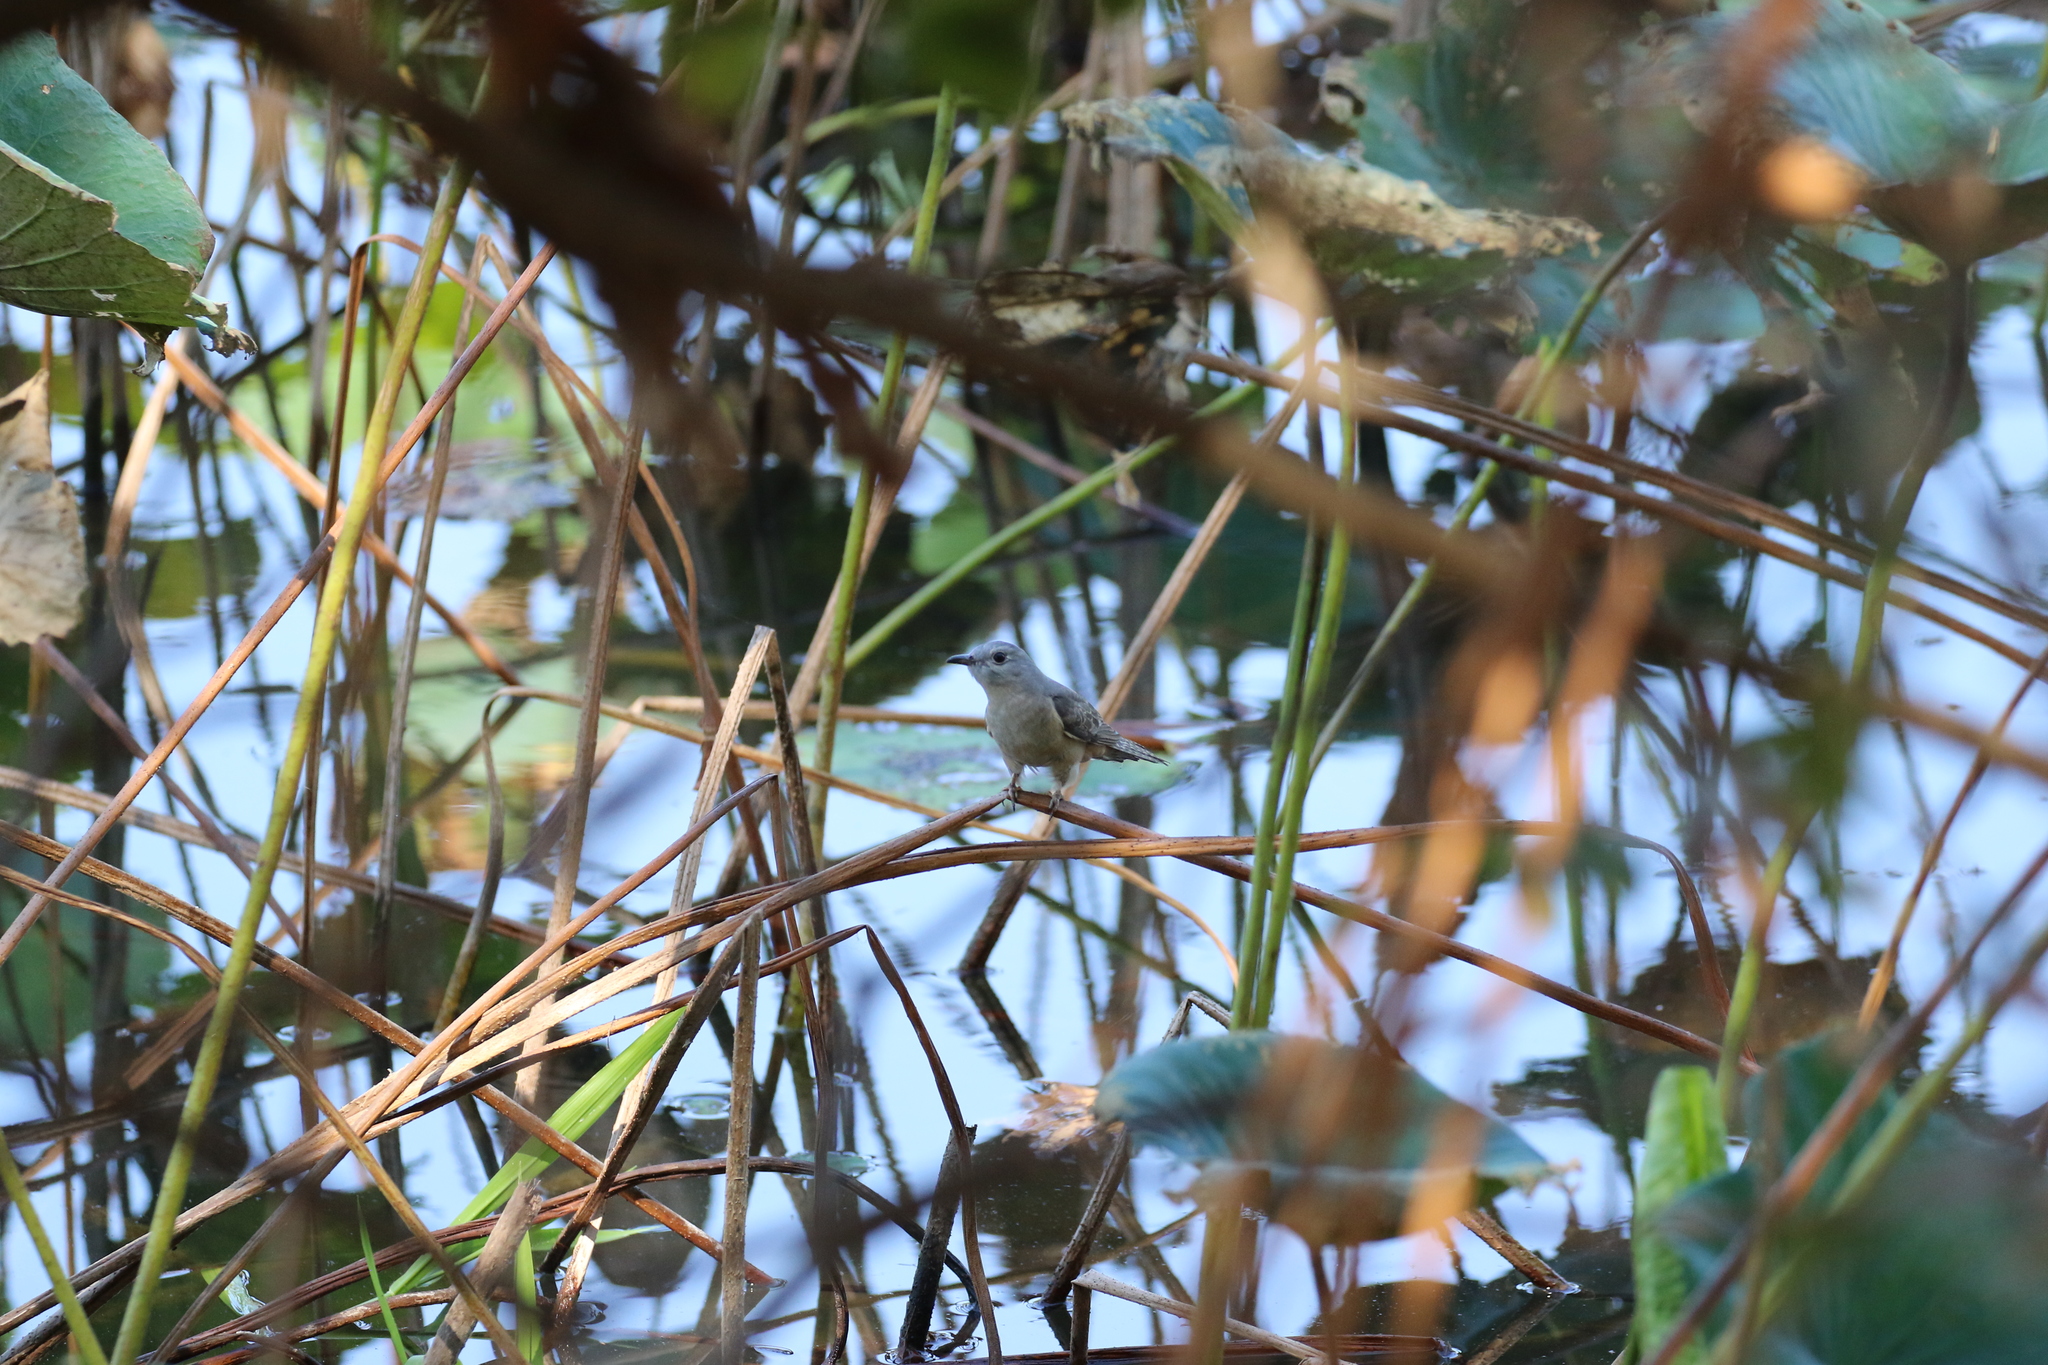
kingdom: Animalia
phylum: Chordata
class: Aves
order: Cuculiformes
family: Cuculidae
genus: Cacomantis
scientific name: Cacomantis variolosus
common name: Brush cuckoo
